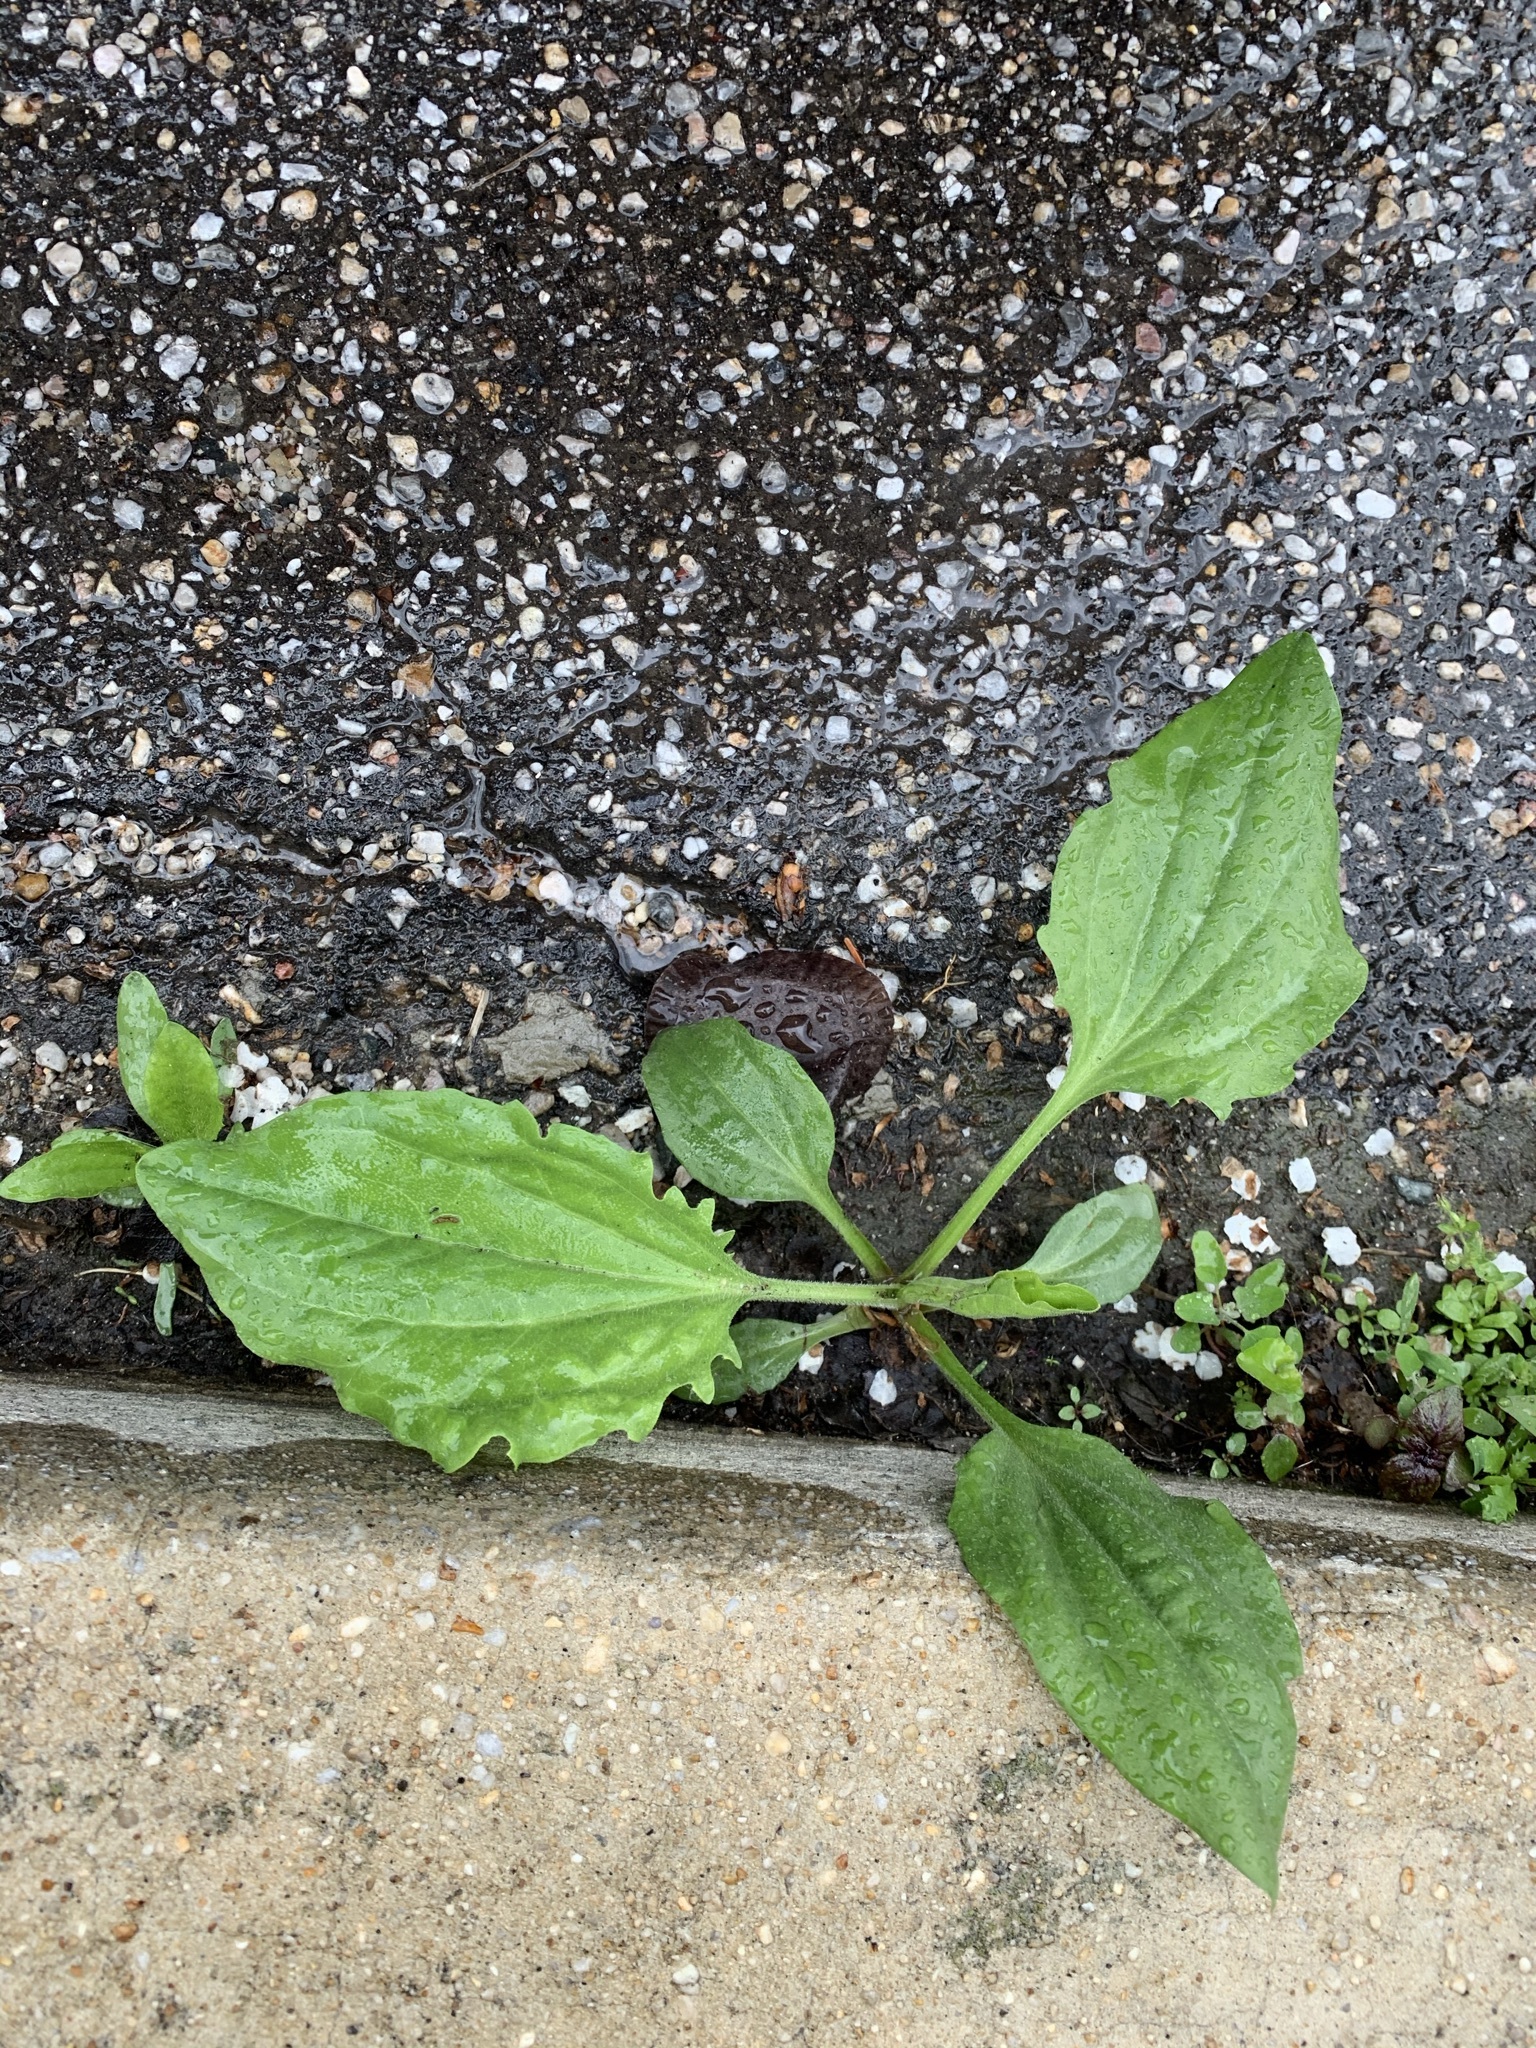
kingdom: Plantae
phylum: Tracheophyta
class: Magnoliopsida
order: Lamiales
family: Plantaginaceae
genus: Plantago
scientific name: Plantago major
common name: Common plantain
